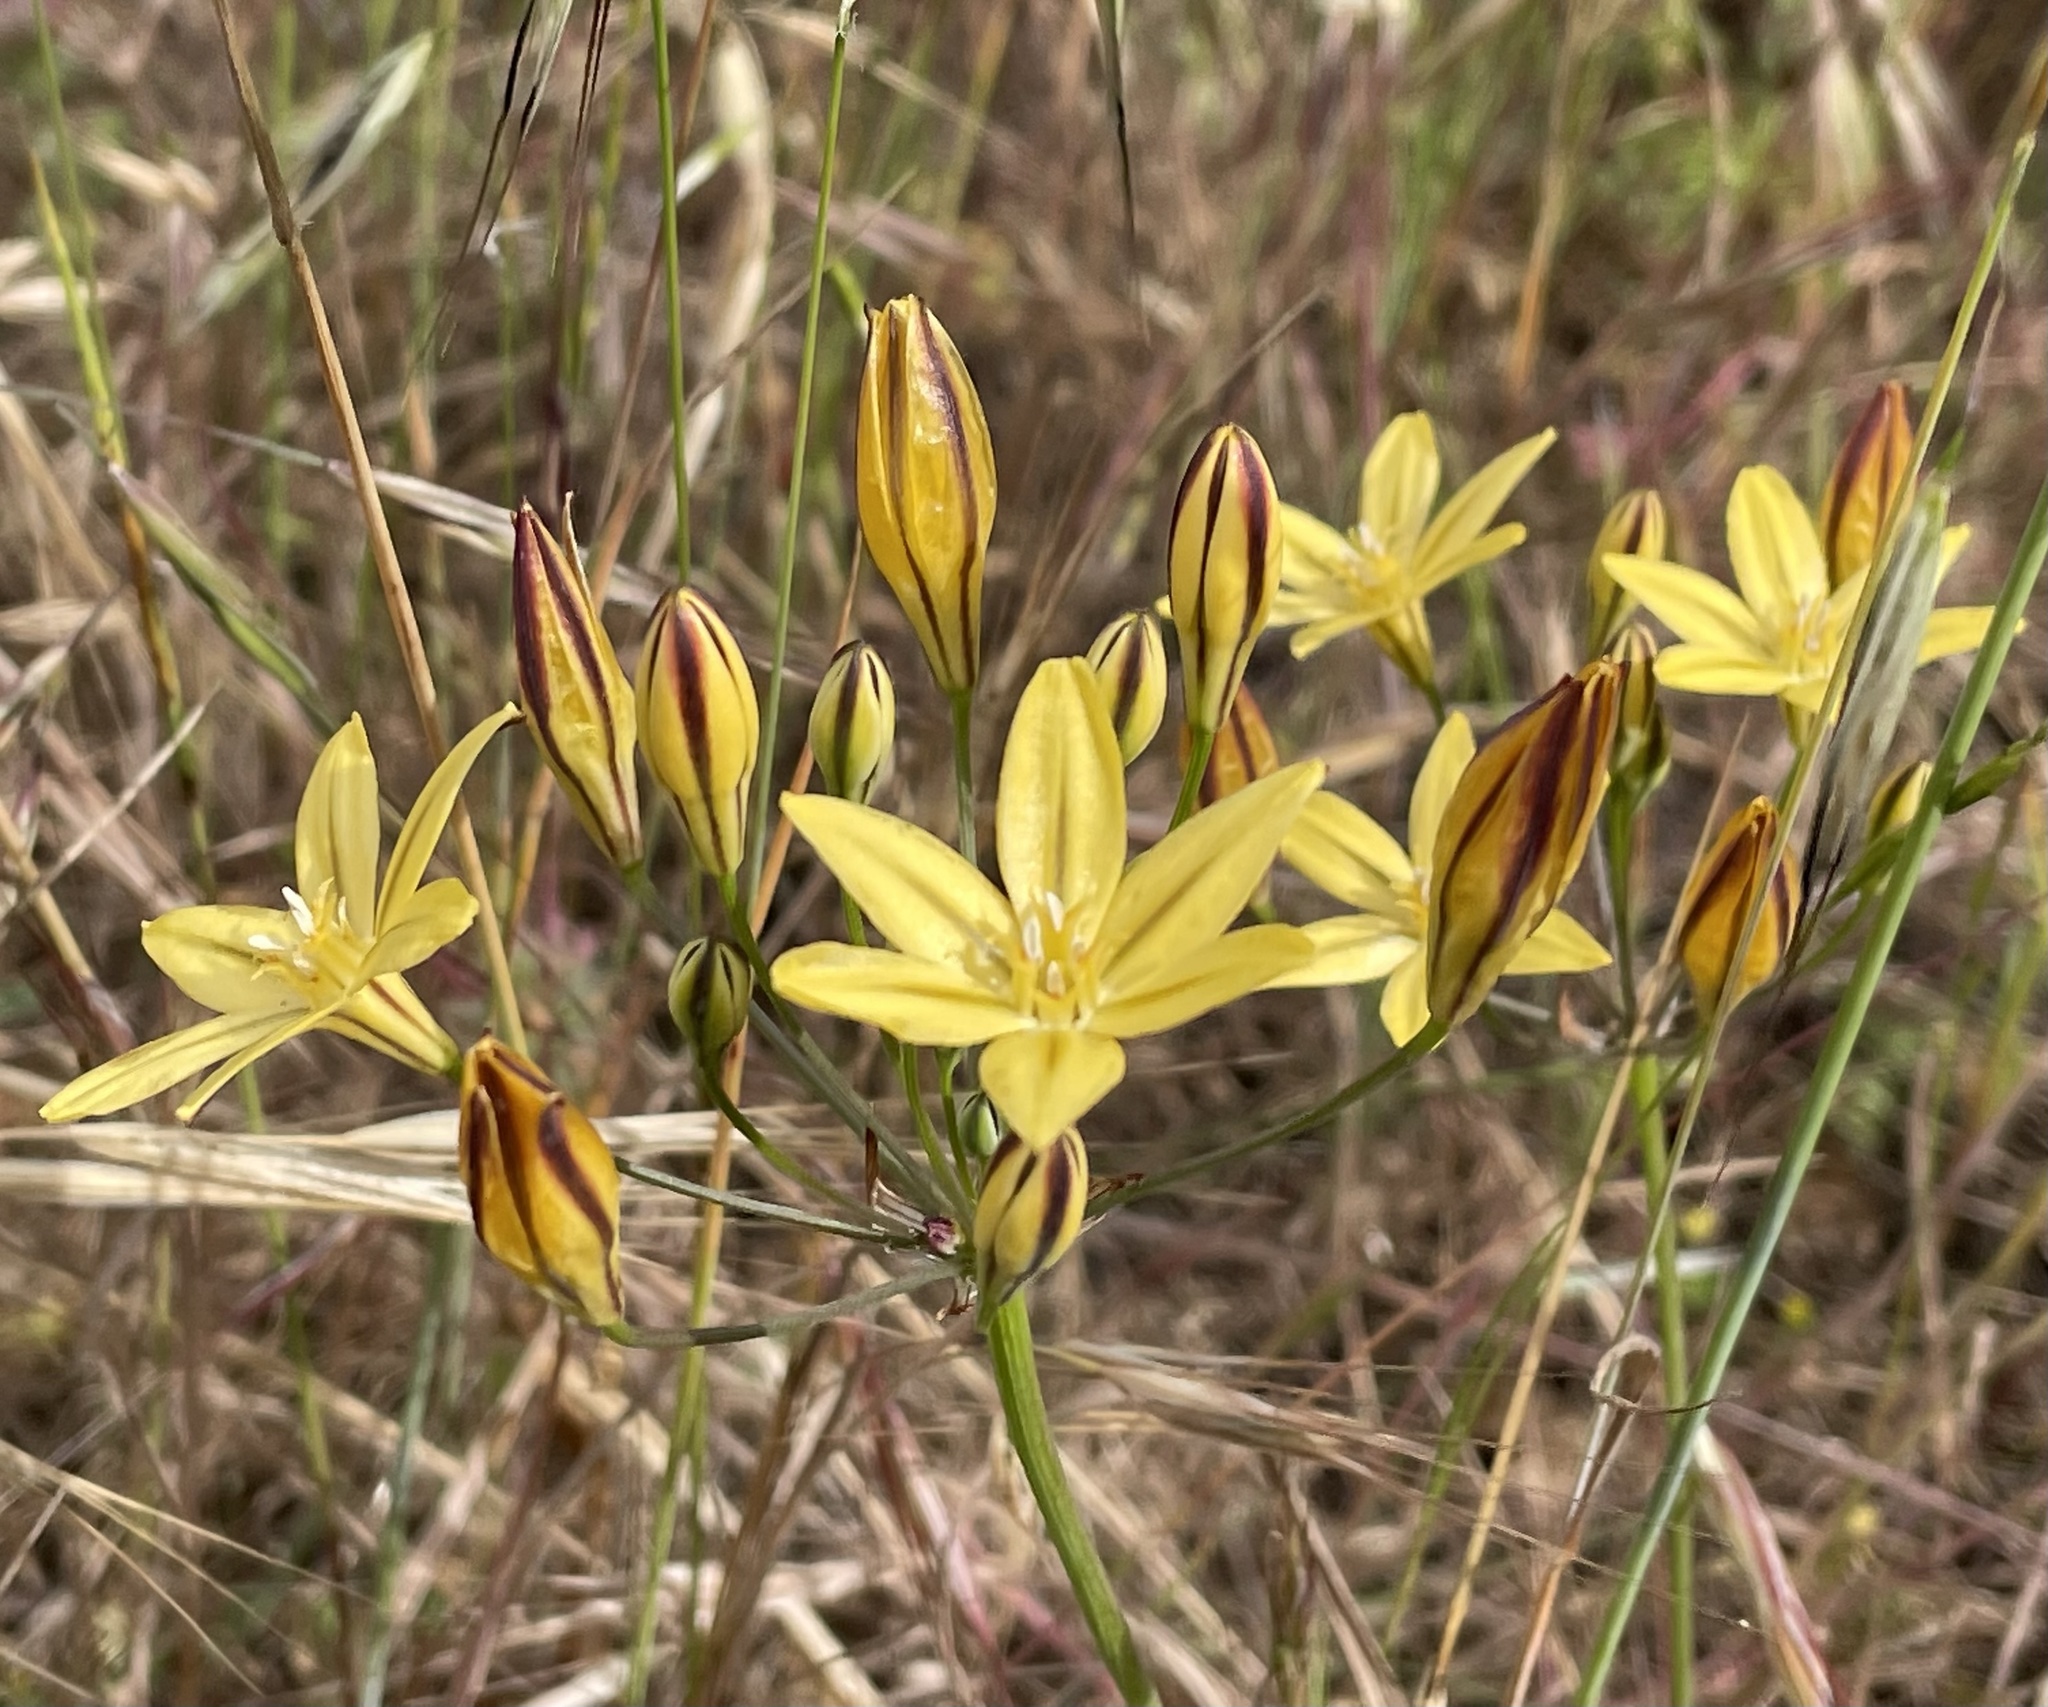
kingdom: Plantae
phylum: Tracheophyta
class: Liliopsida
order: Asparagales
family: Asparagaceae
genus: Triteleia
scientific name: Triteleia ixioides
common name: Yellow-brodiaea
